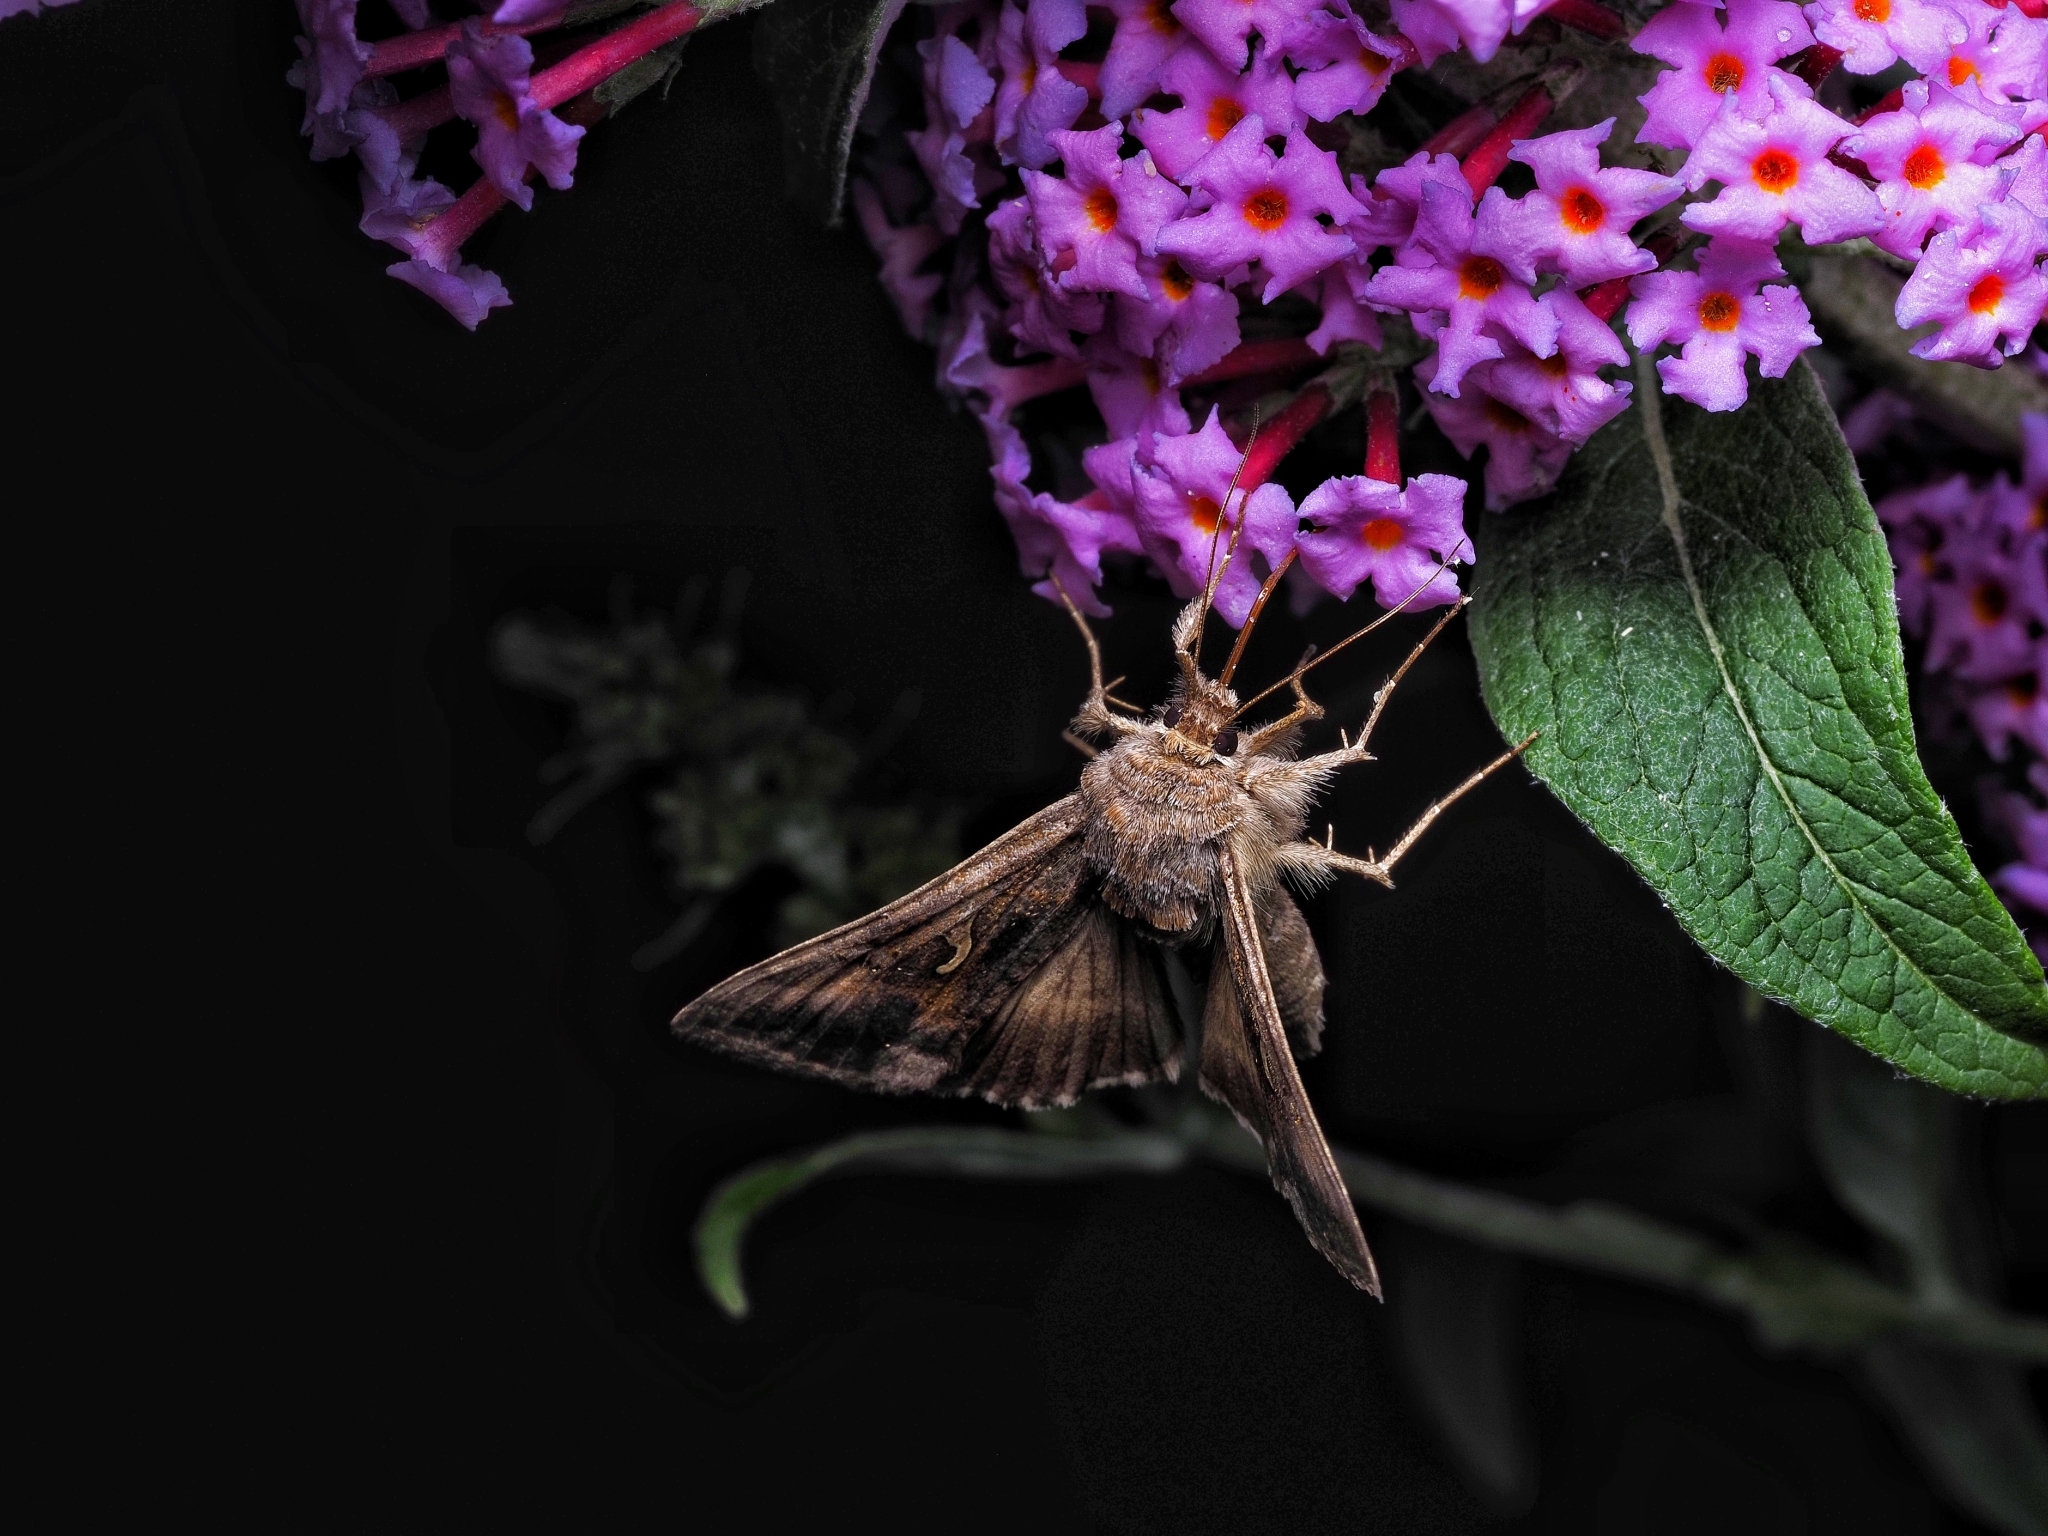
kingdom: Animalia
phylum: Arthropoda
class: Insecta
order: Lepidoptera
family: Noctuidae
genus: Autographa
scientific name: Autographa gamma
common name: Silver y
